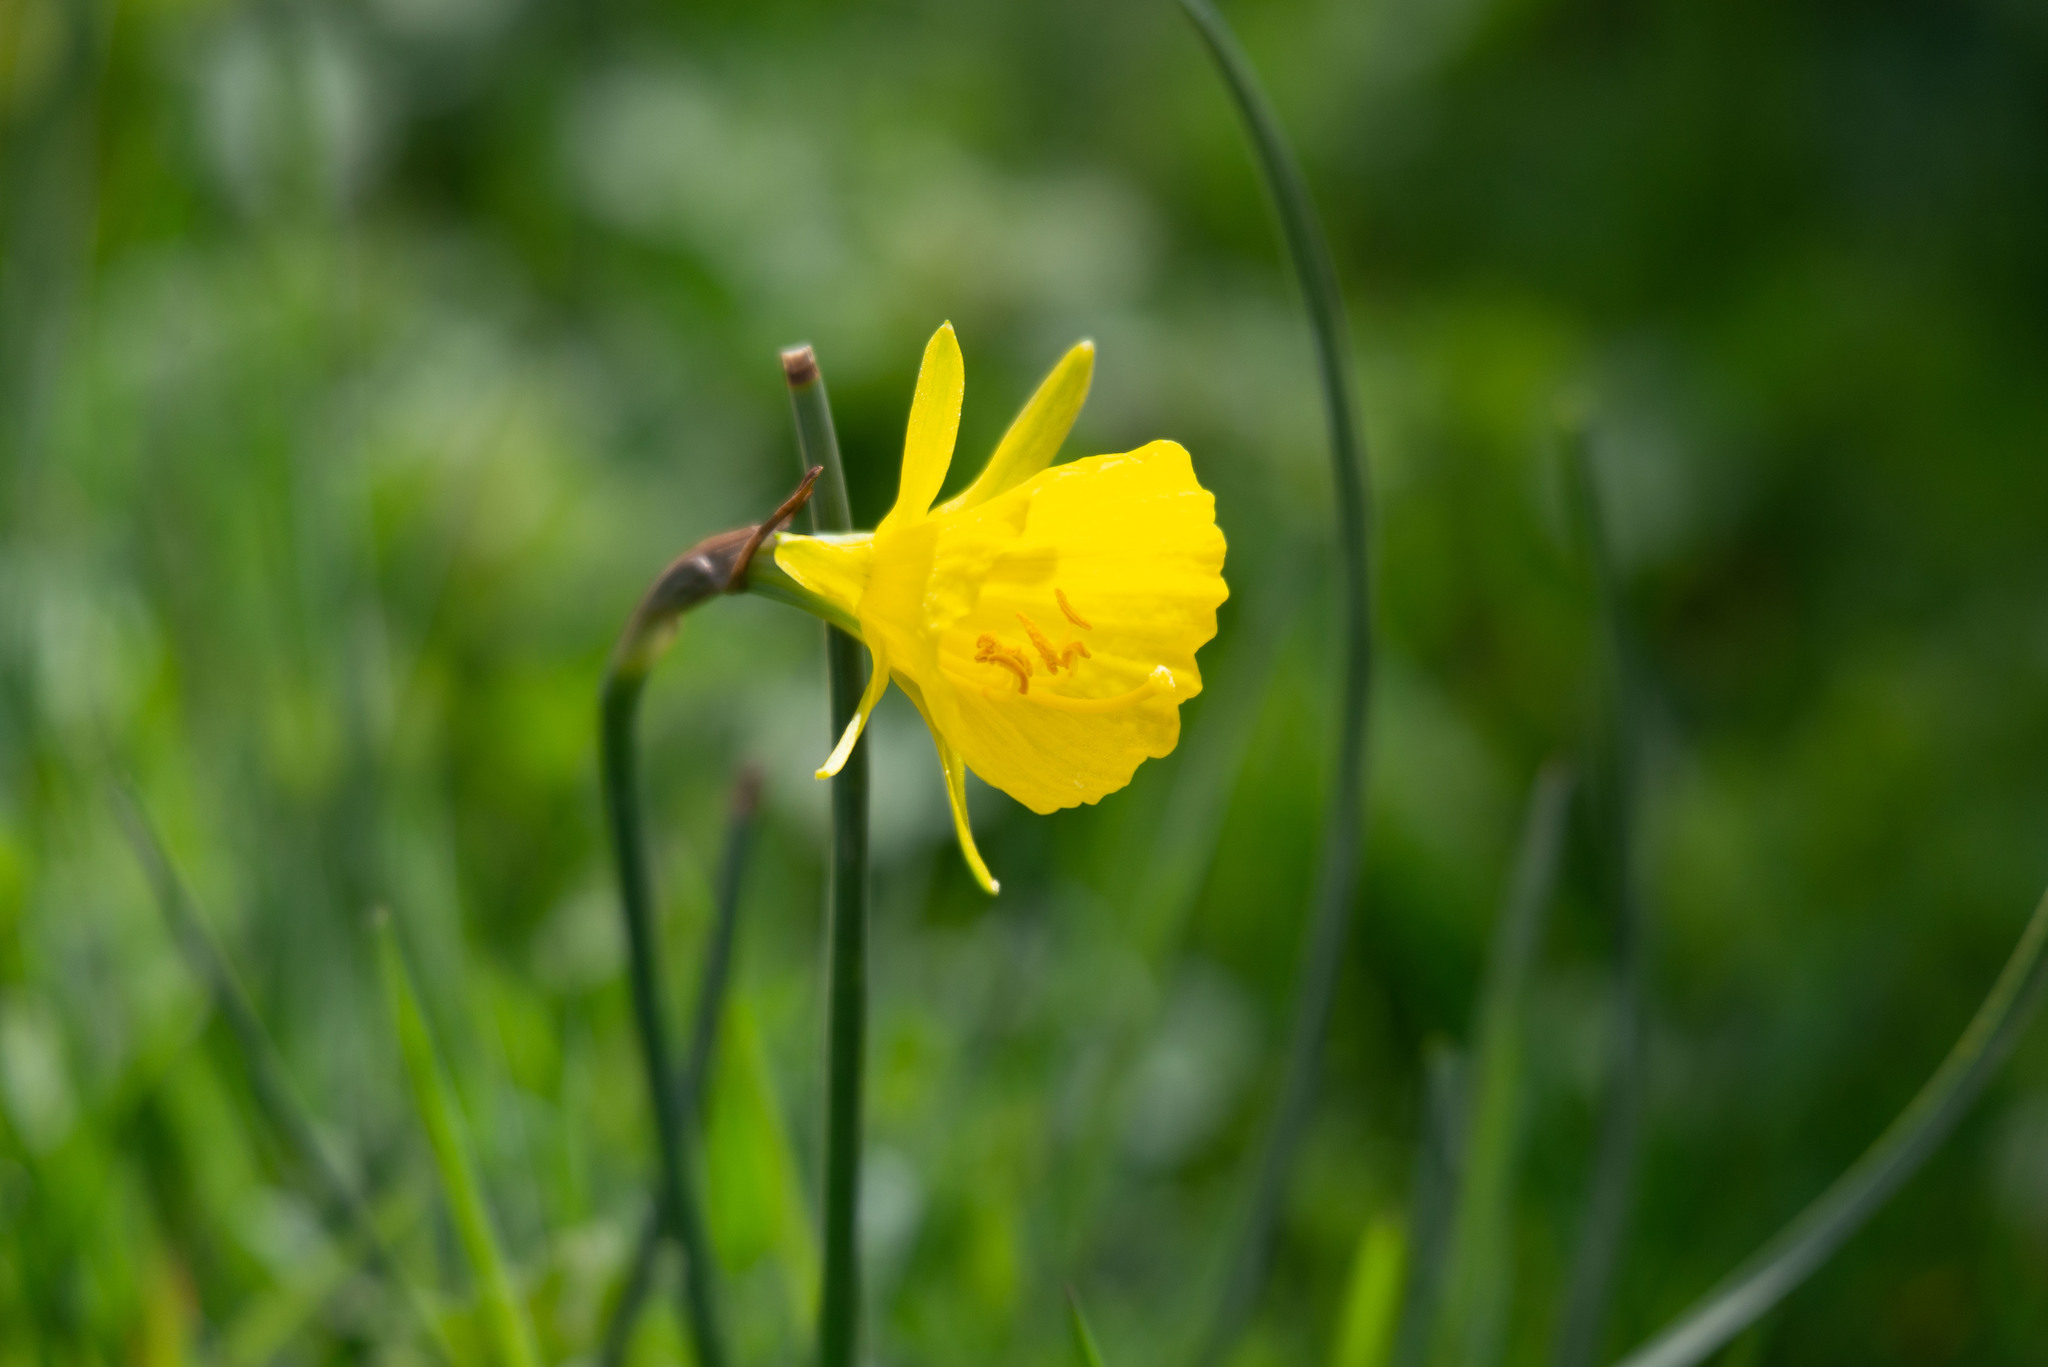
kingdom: Plantae
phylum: Tracheophyta
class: Liliopsida
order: Asparagales
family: Amaryllidaceae
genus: Narcissus
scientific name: Narcissus bulbocodium
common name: Hoop-petticoat daffodil
